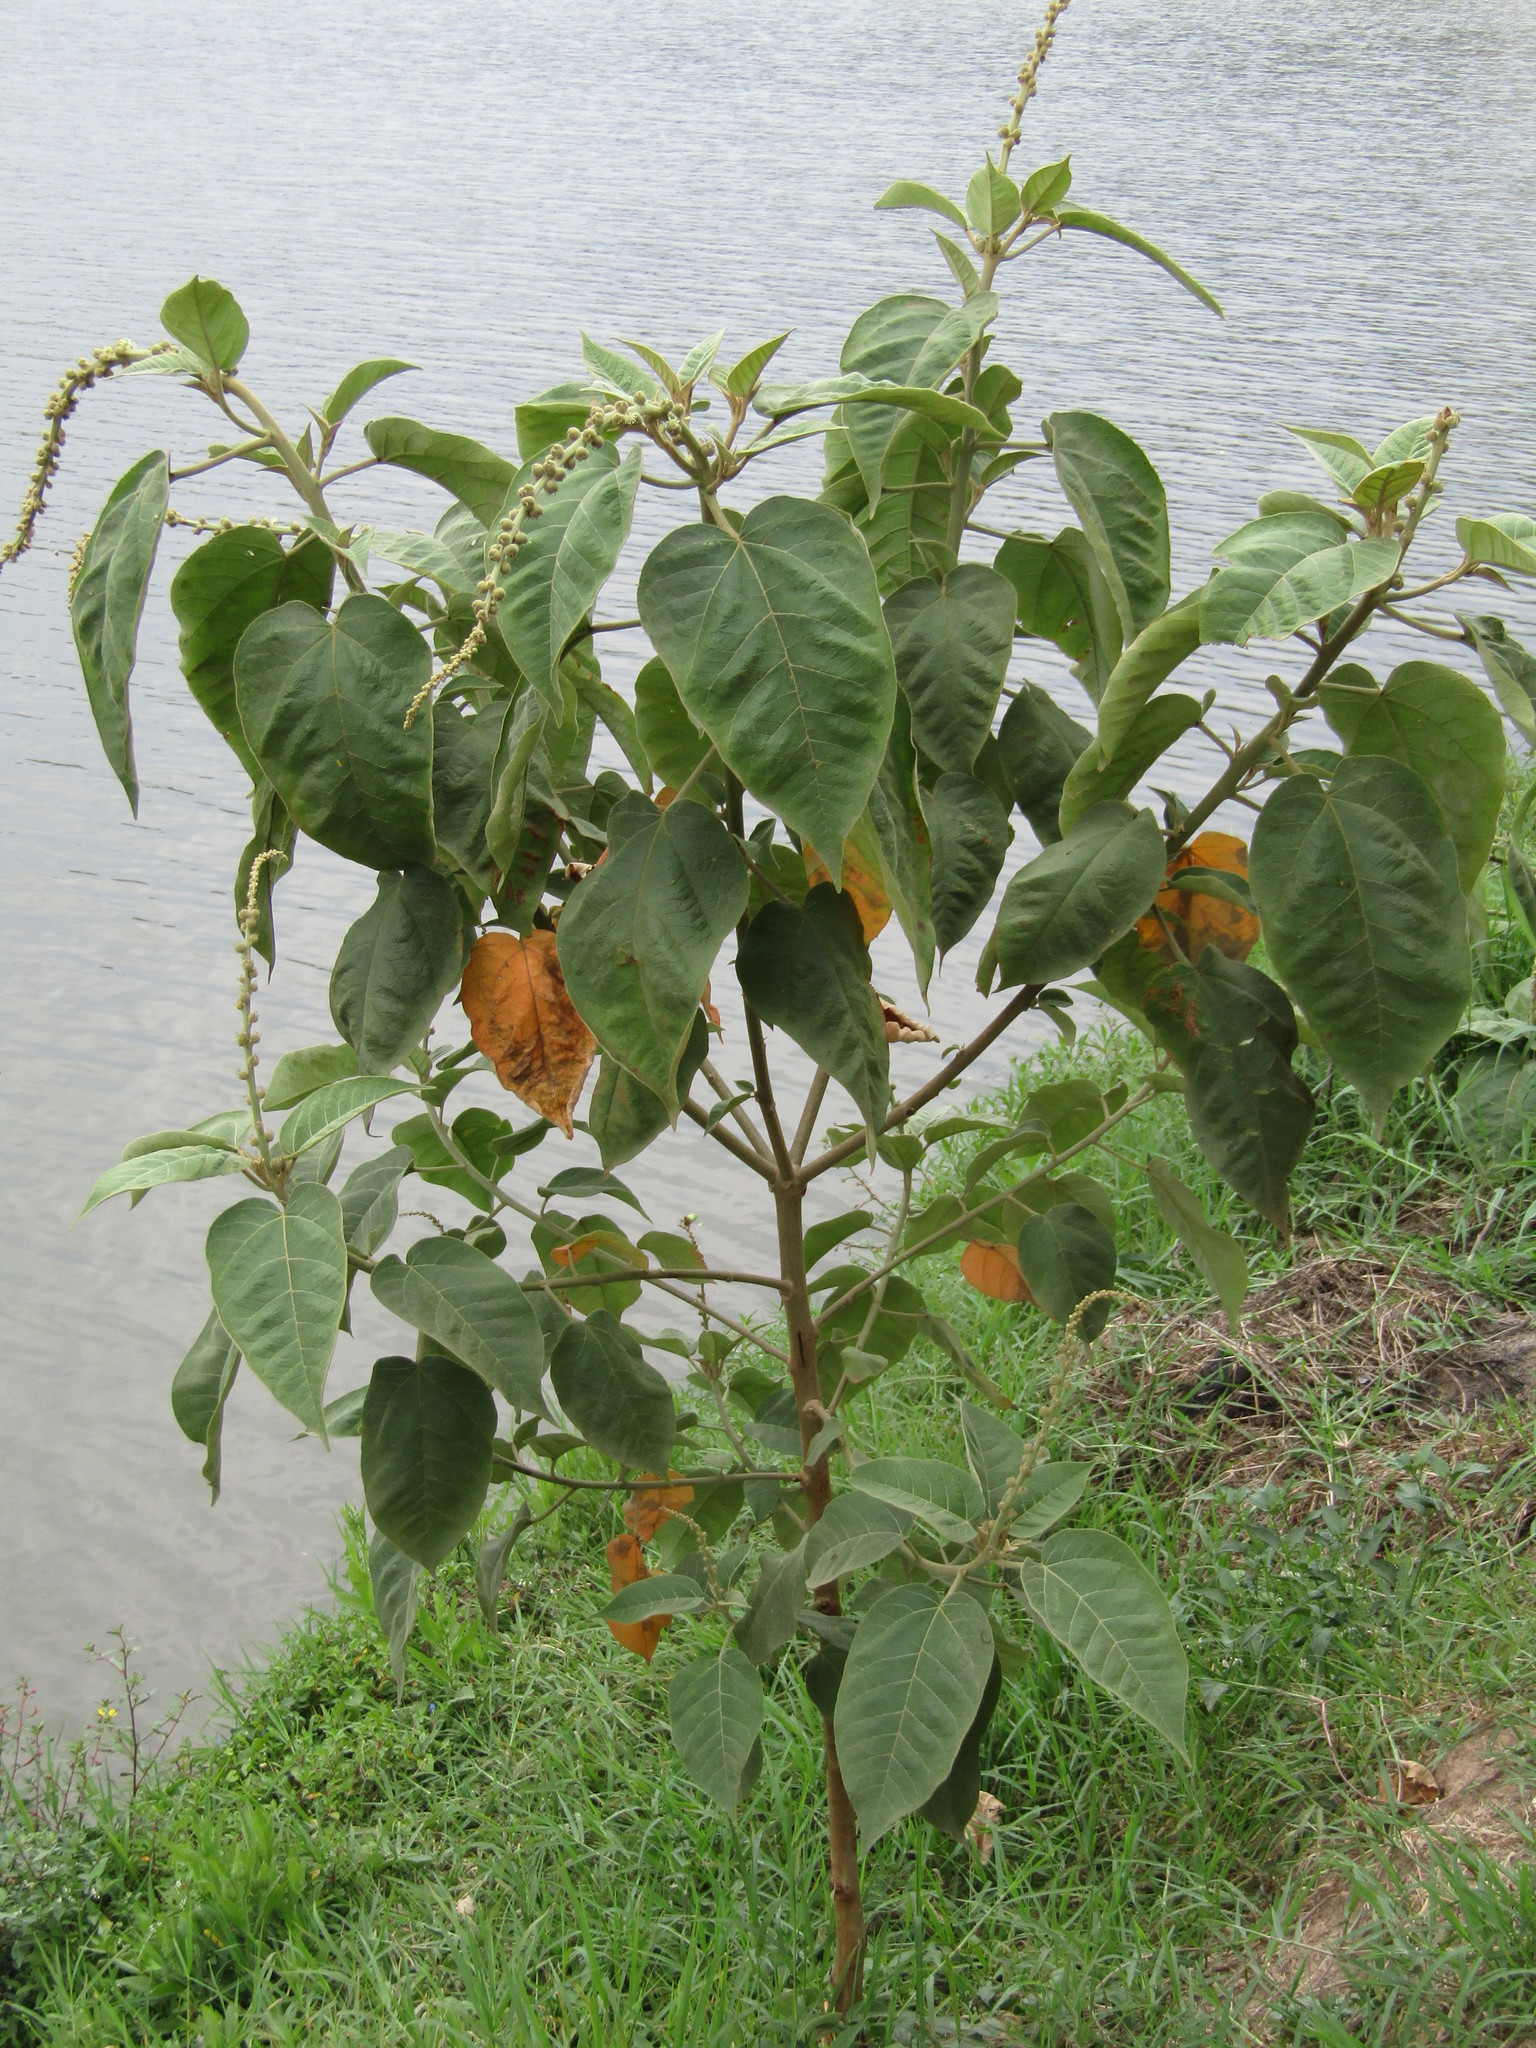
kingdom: Plantae
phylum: Tracheophyta
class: Magnoliopsida
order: Malpighiales
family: Euphorbiaceae
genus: Croton
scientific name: Croton draco
